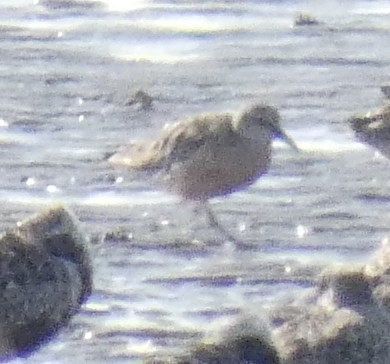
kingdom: Animalia
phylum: Chordata
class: Aves
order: Charadriiformes
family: Scolopacidae
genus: Calidris
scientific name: Calidris canutus
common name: Red knot
